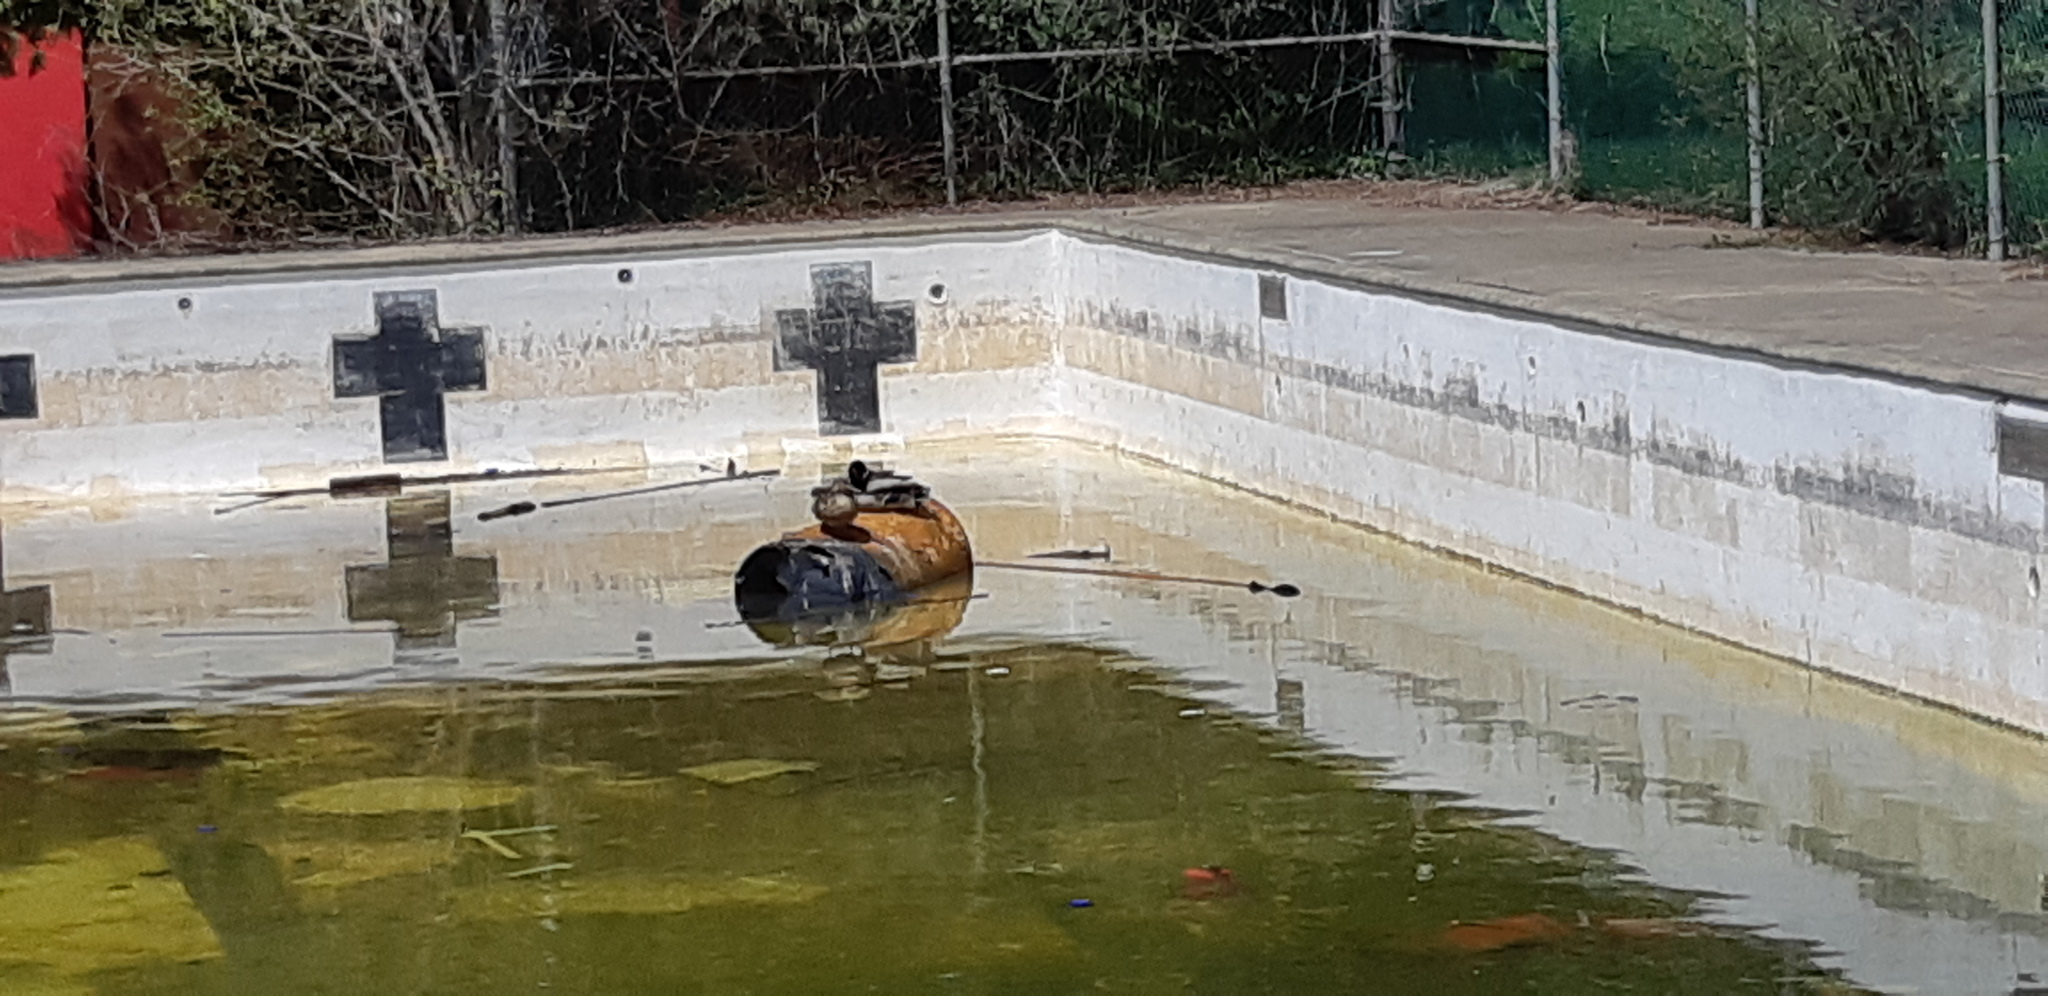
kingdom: Animalia
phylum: Chordata
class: Aves
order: Anseriformes
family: Anatidae
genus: Anas
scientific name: Anas platyrhynchos
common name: Mallard
